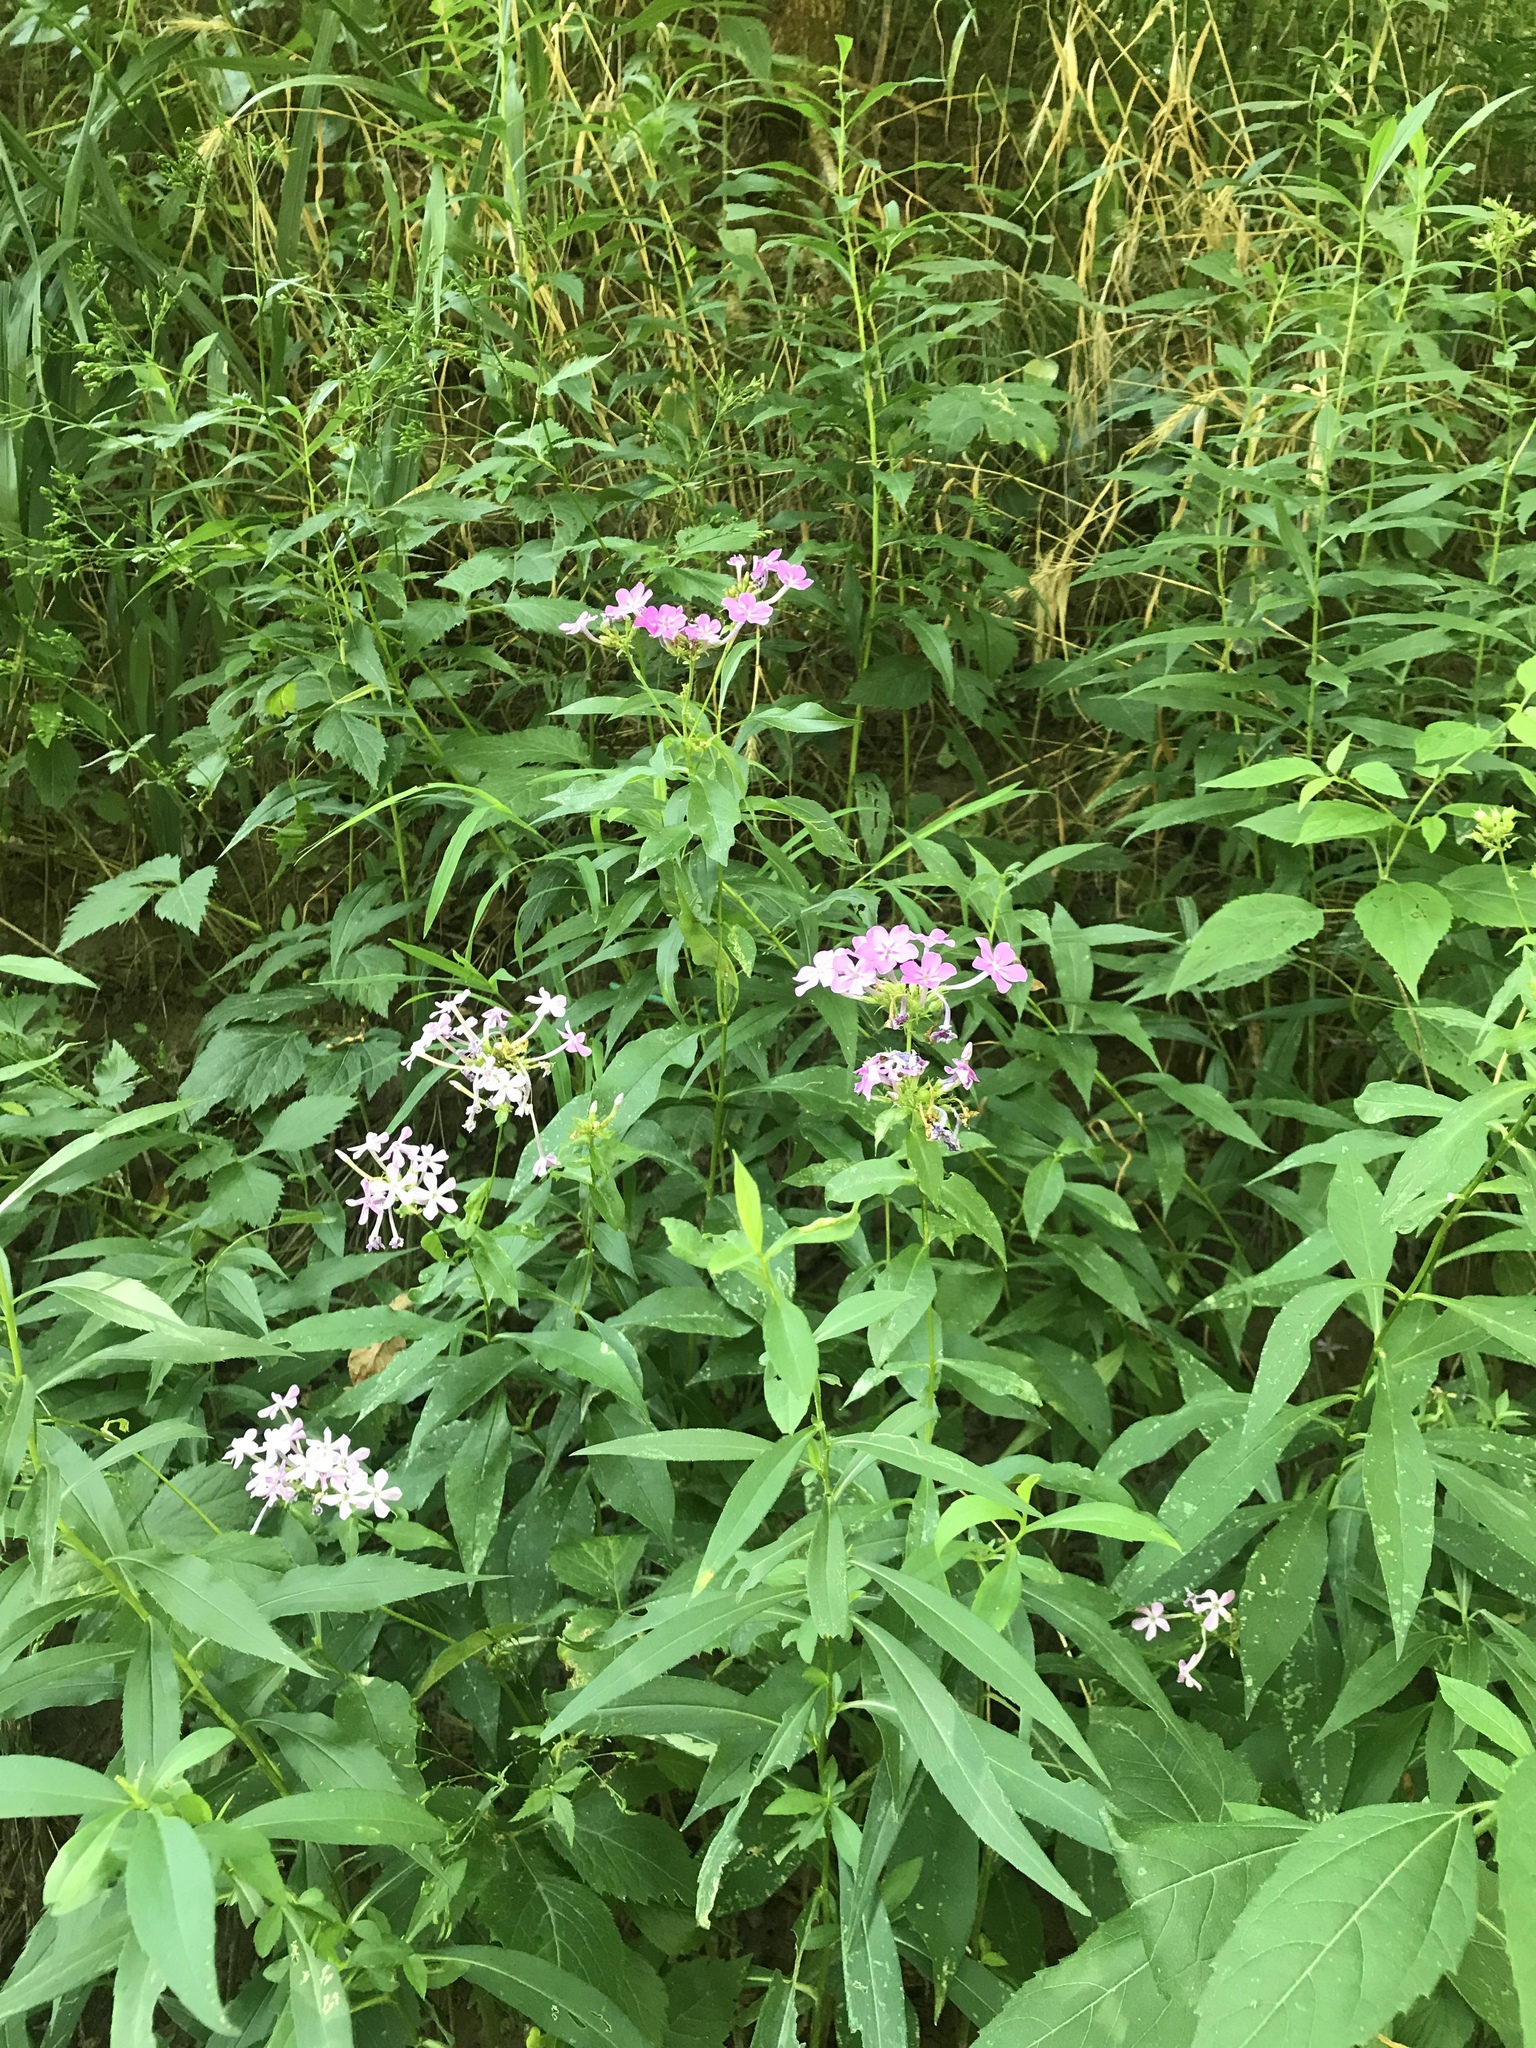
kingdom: Plantae
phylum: Tracheophyta
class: Magnoliopsida
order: Ericales
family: Polemoniaceae
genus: Phlox
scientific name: Phlox paniculata
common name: Fall phlox
